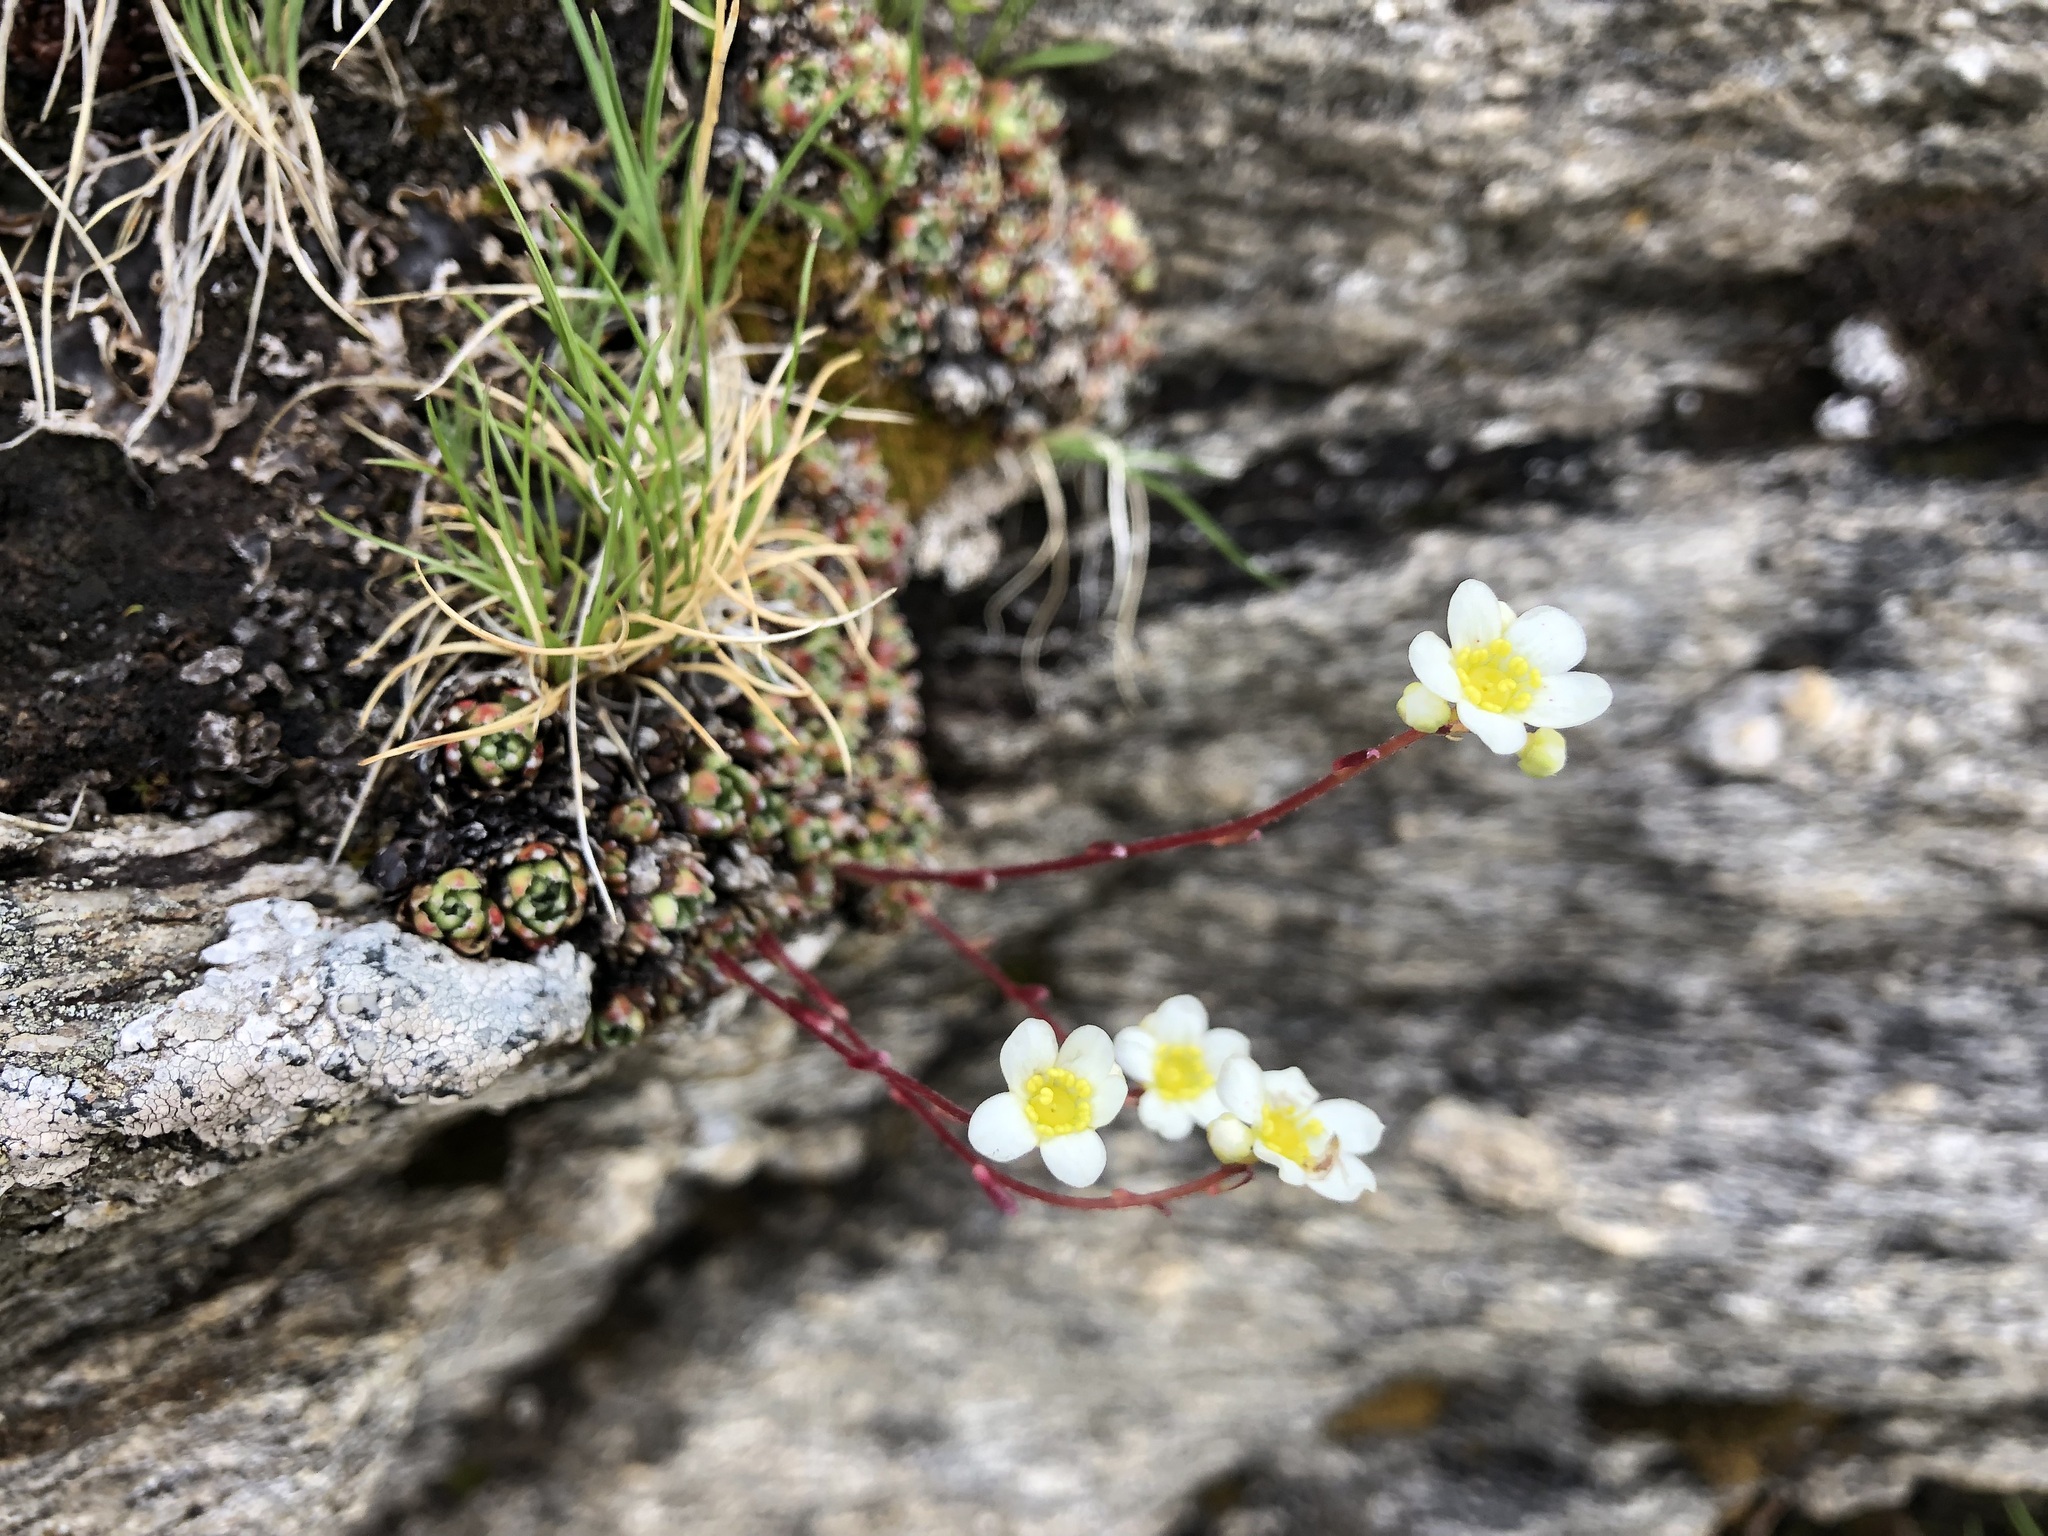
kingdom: Plantae
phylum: Tracheophyta
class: Magnoliopsida
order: Saxifragales
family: Saxifragaceae
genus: Saxifraga
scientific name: Saxifraga paniculata
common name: Livelong saxifrage
